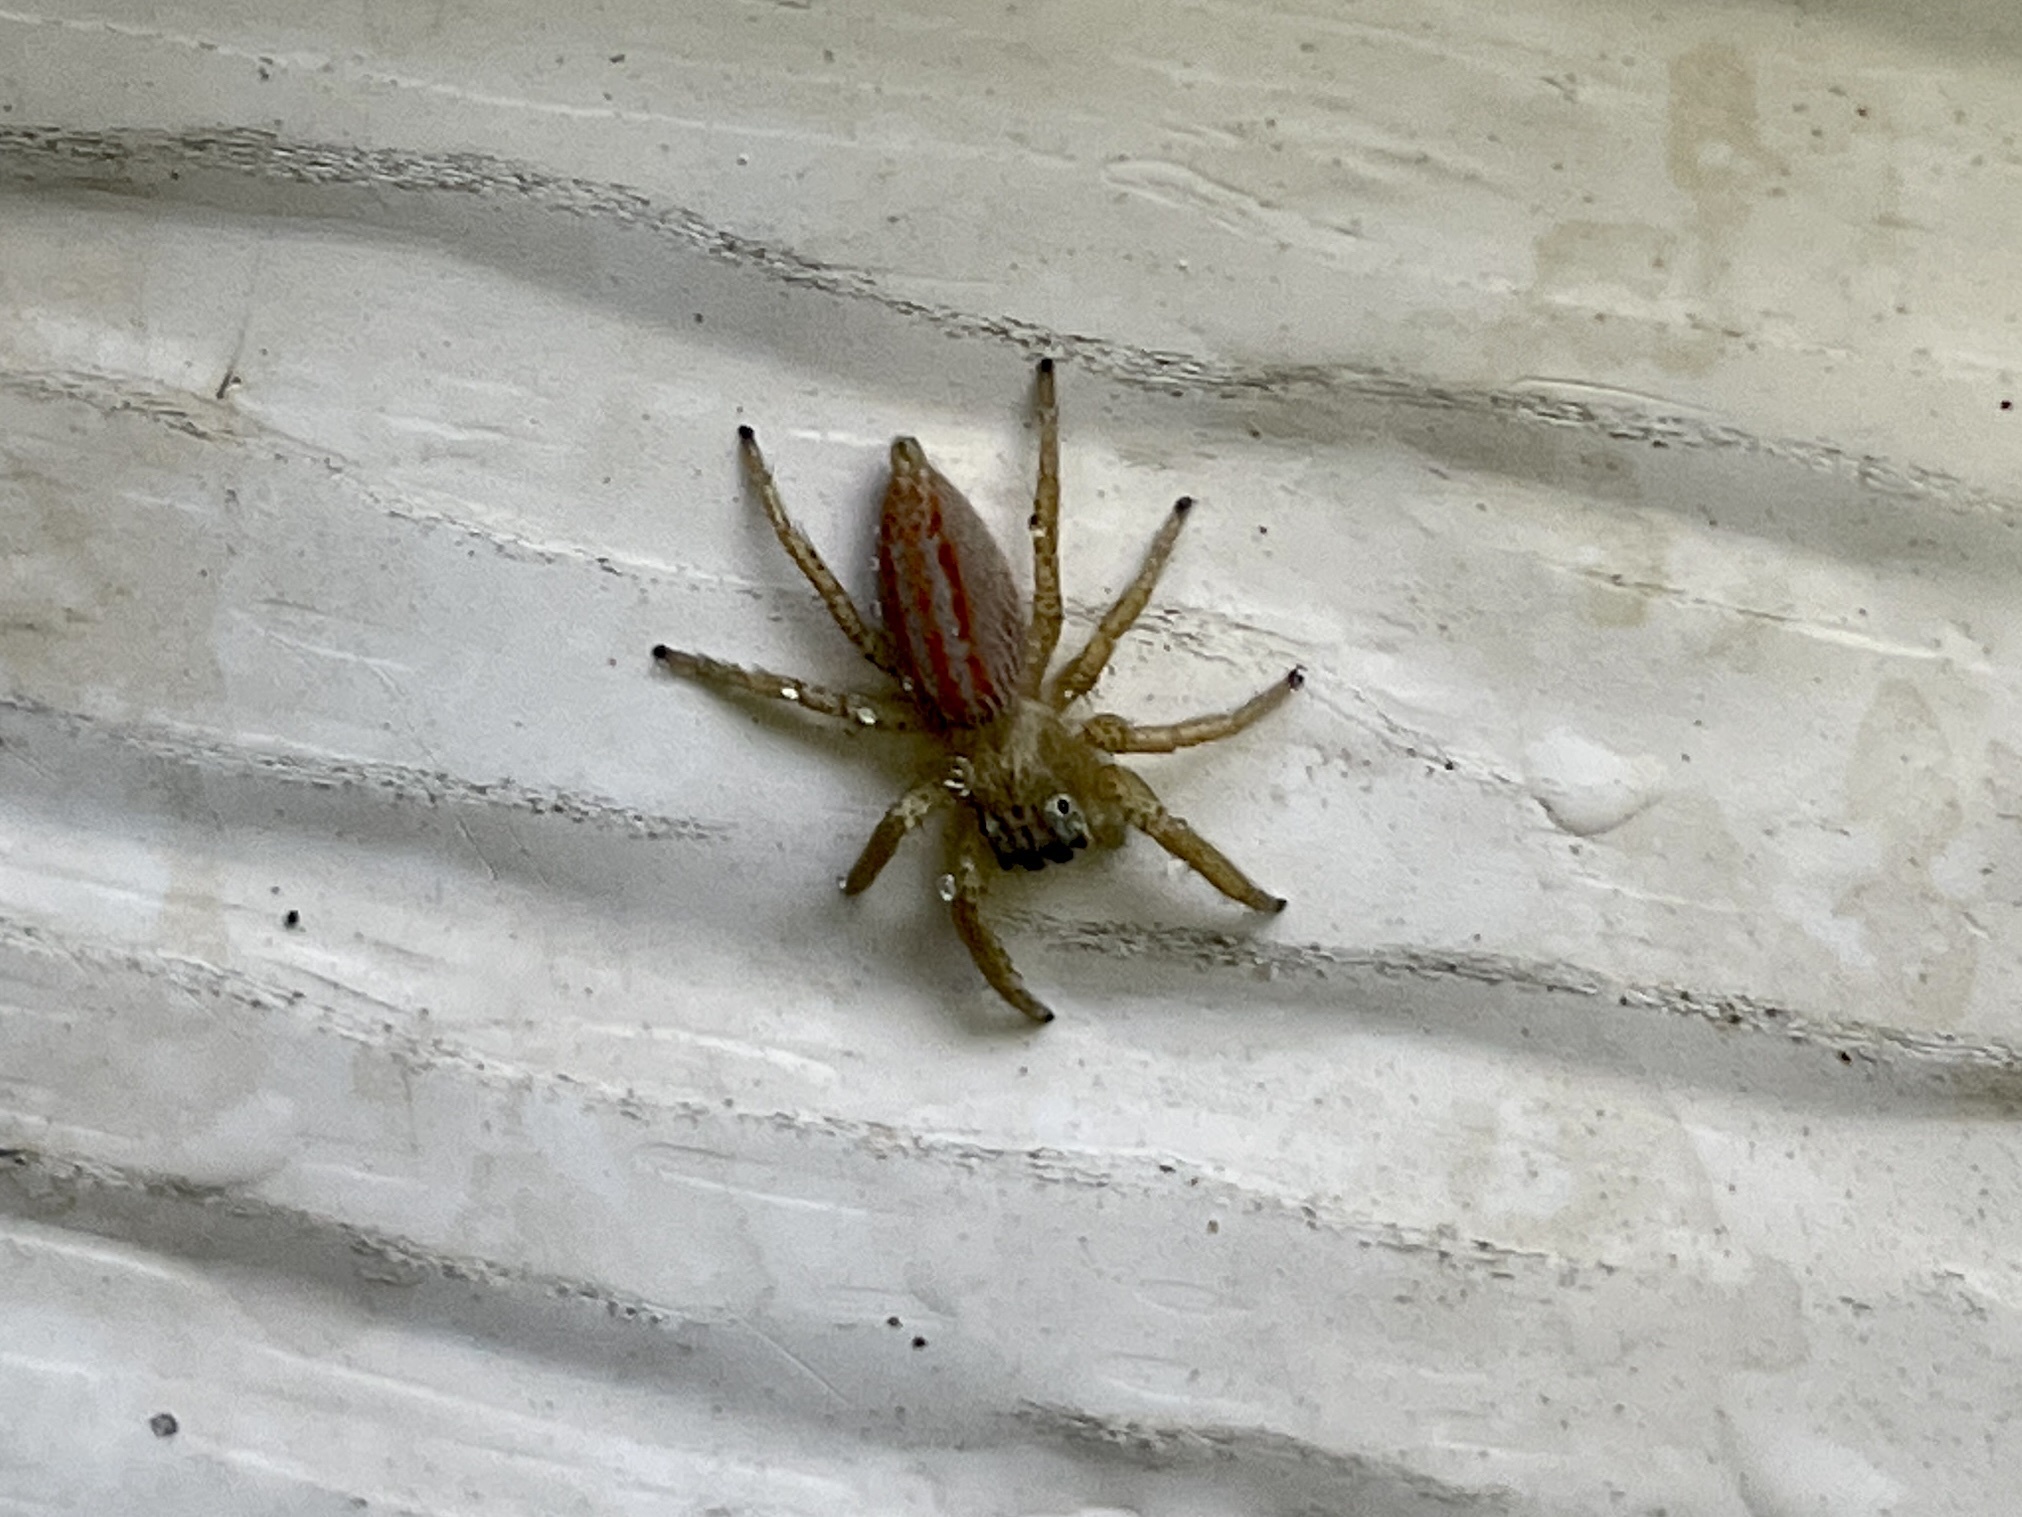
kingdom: Animalia
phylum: Arthropoda
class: Arachnida
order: Araneae
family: Salticidae
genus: Paramaevia
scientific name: Paramaevia poultoni
